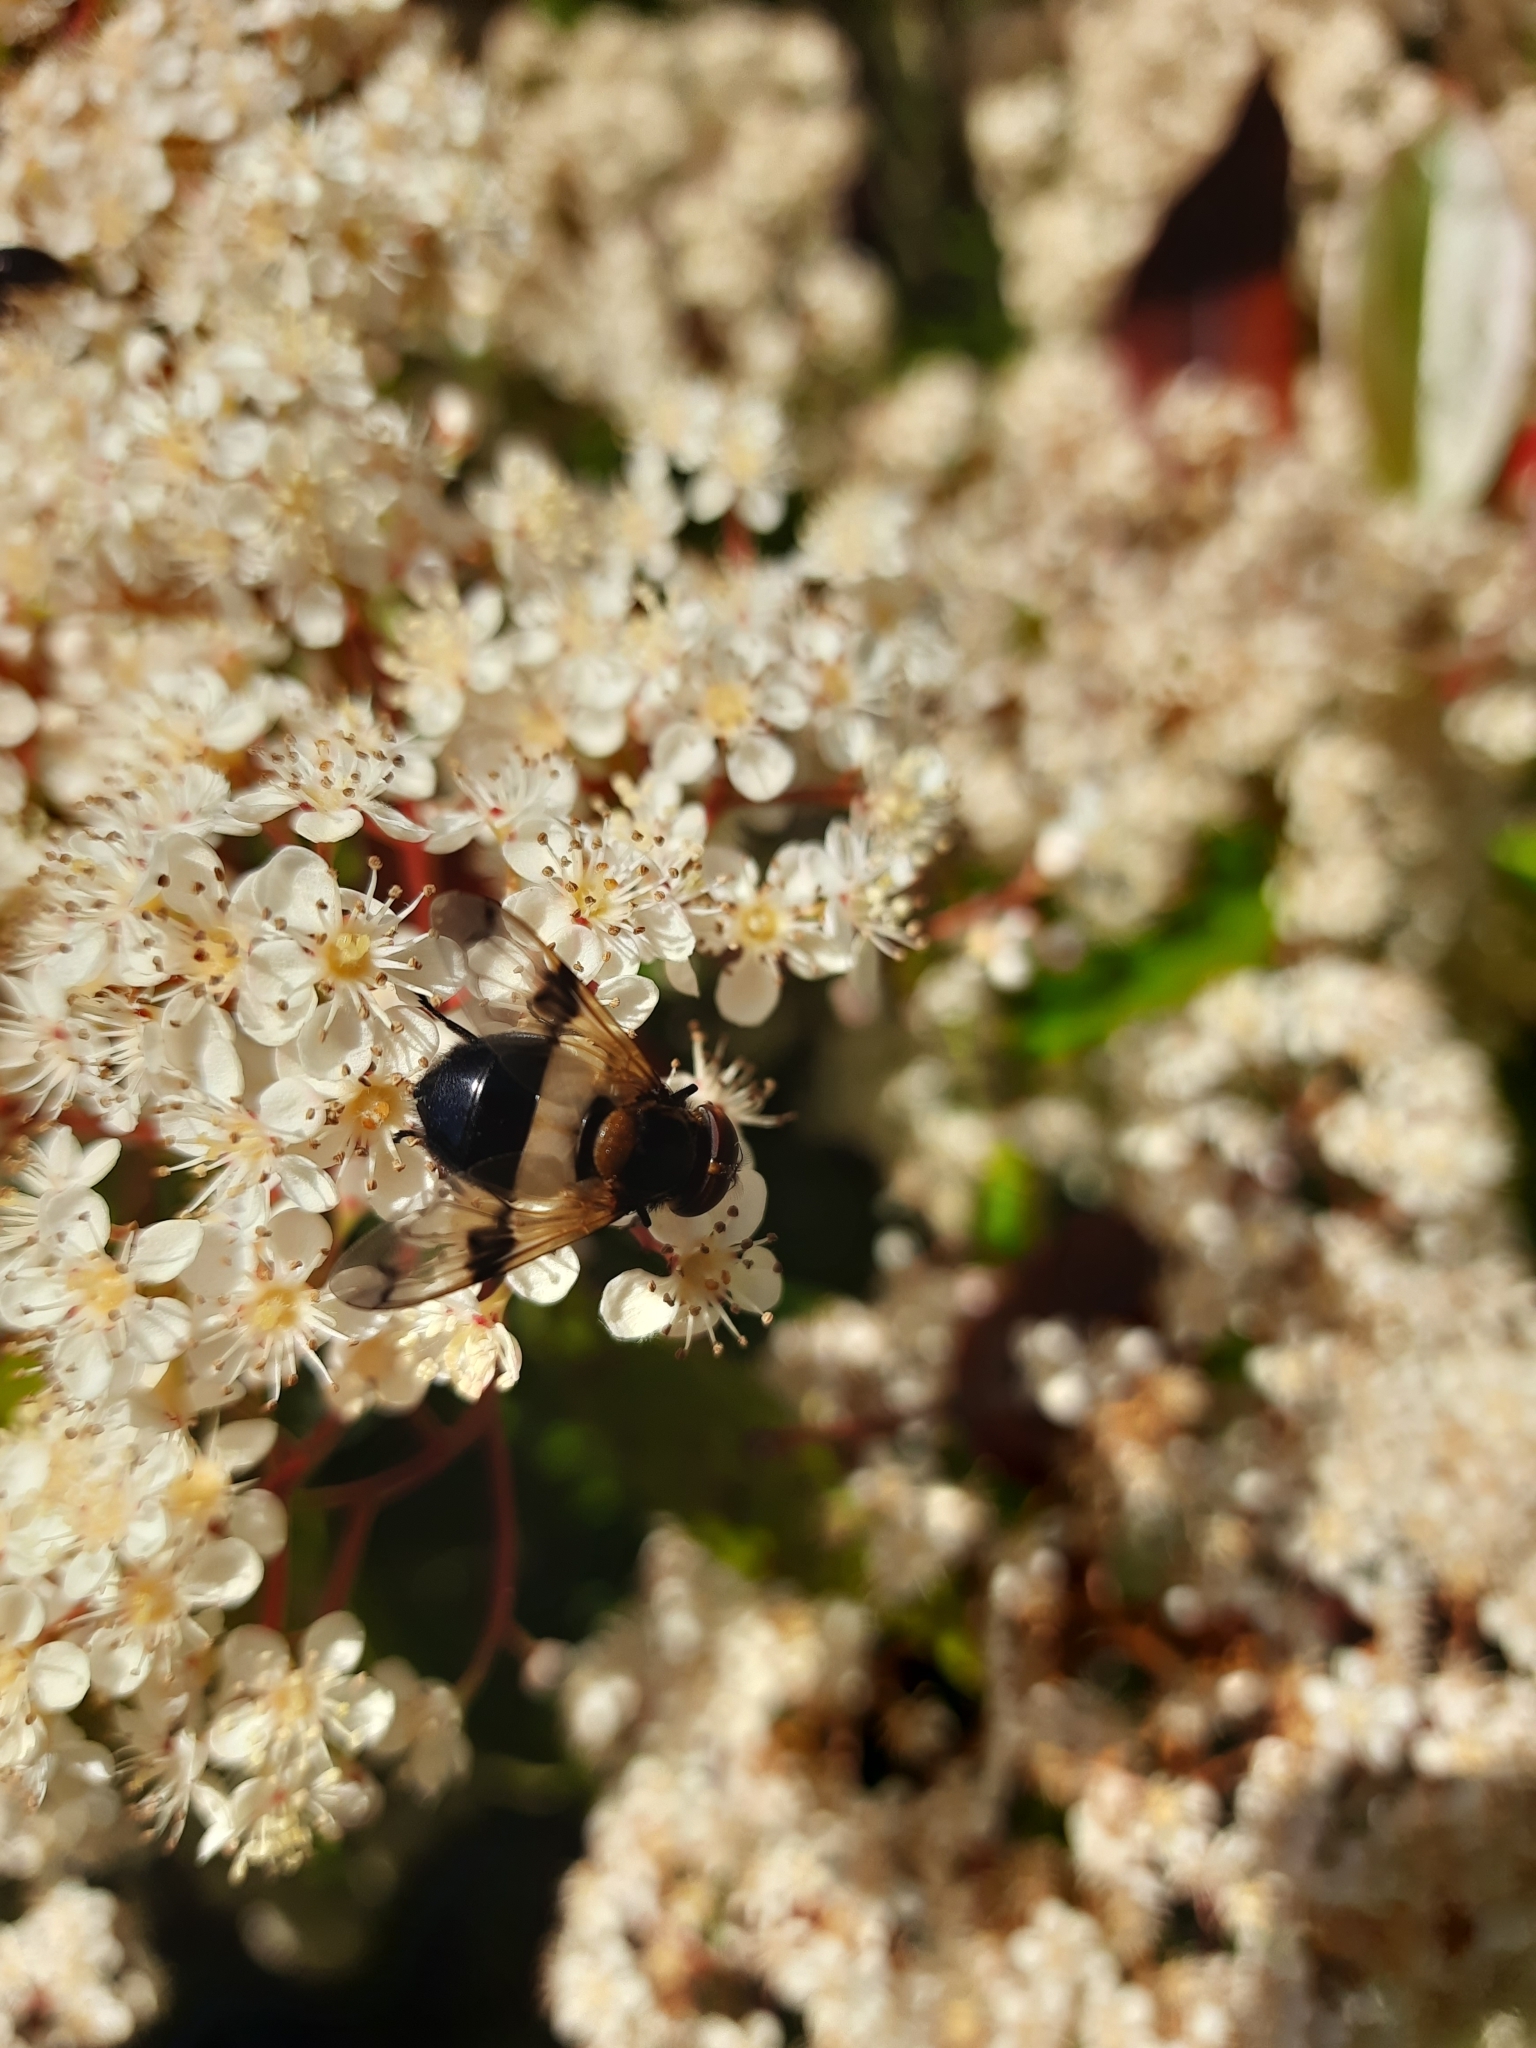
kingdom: Animalia
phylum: Arthropoda
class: Insecta
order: Diptera
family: Syrphidae
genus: Volucella
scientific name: Volucella pellucens
